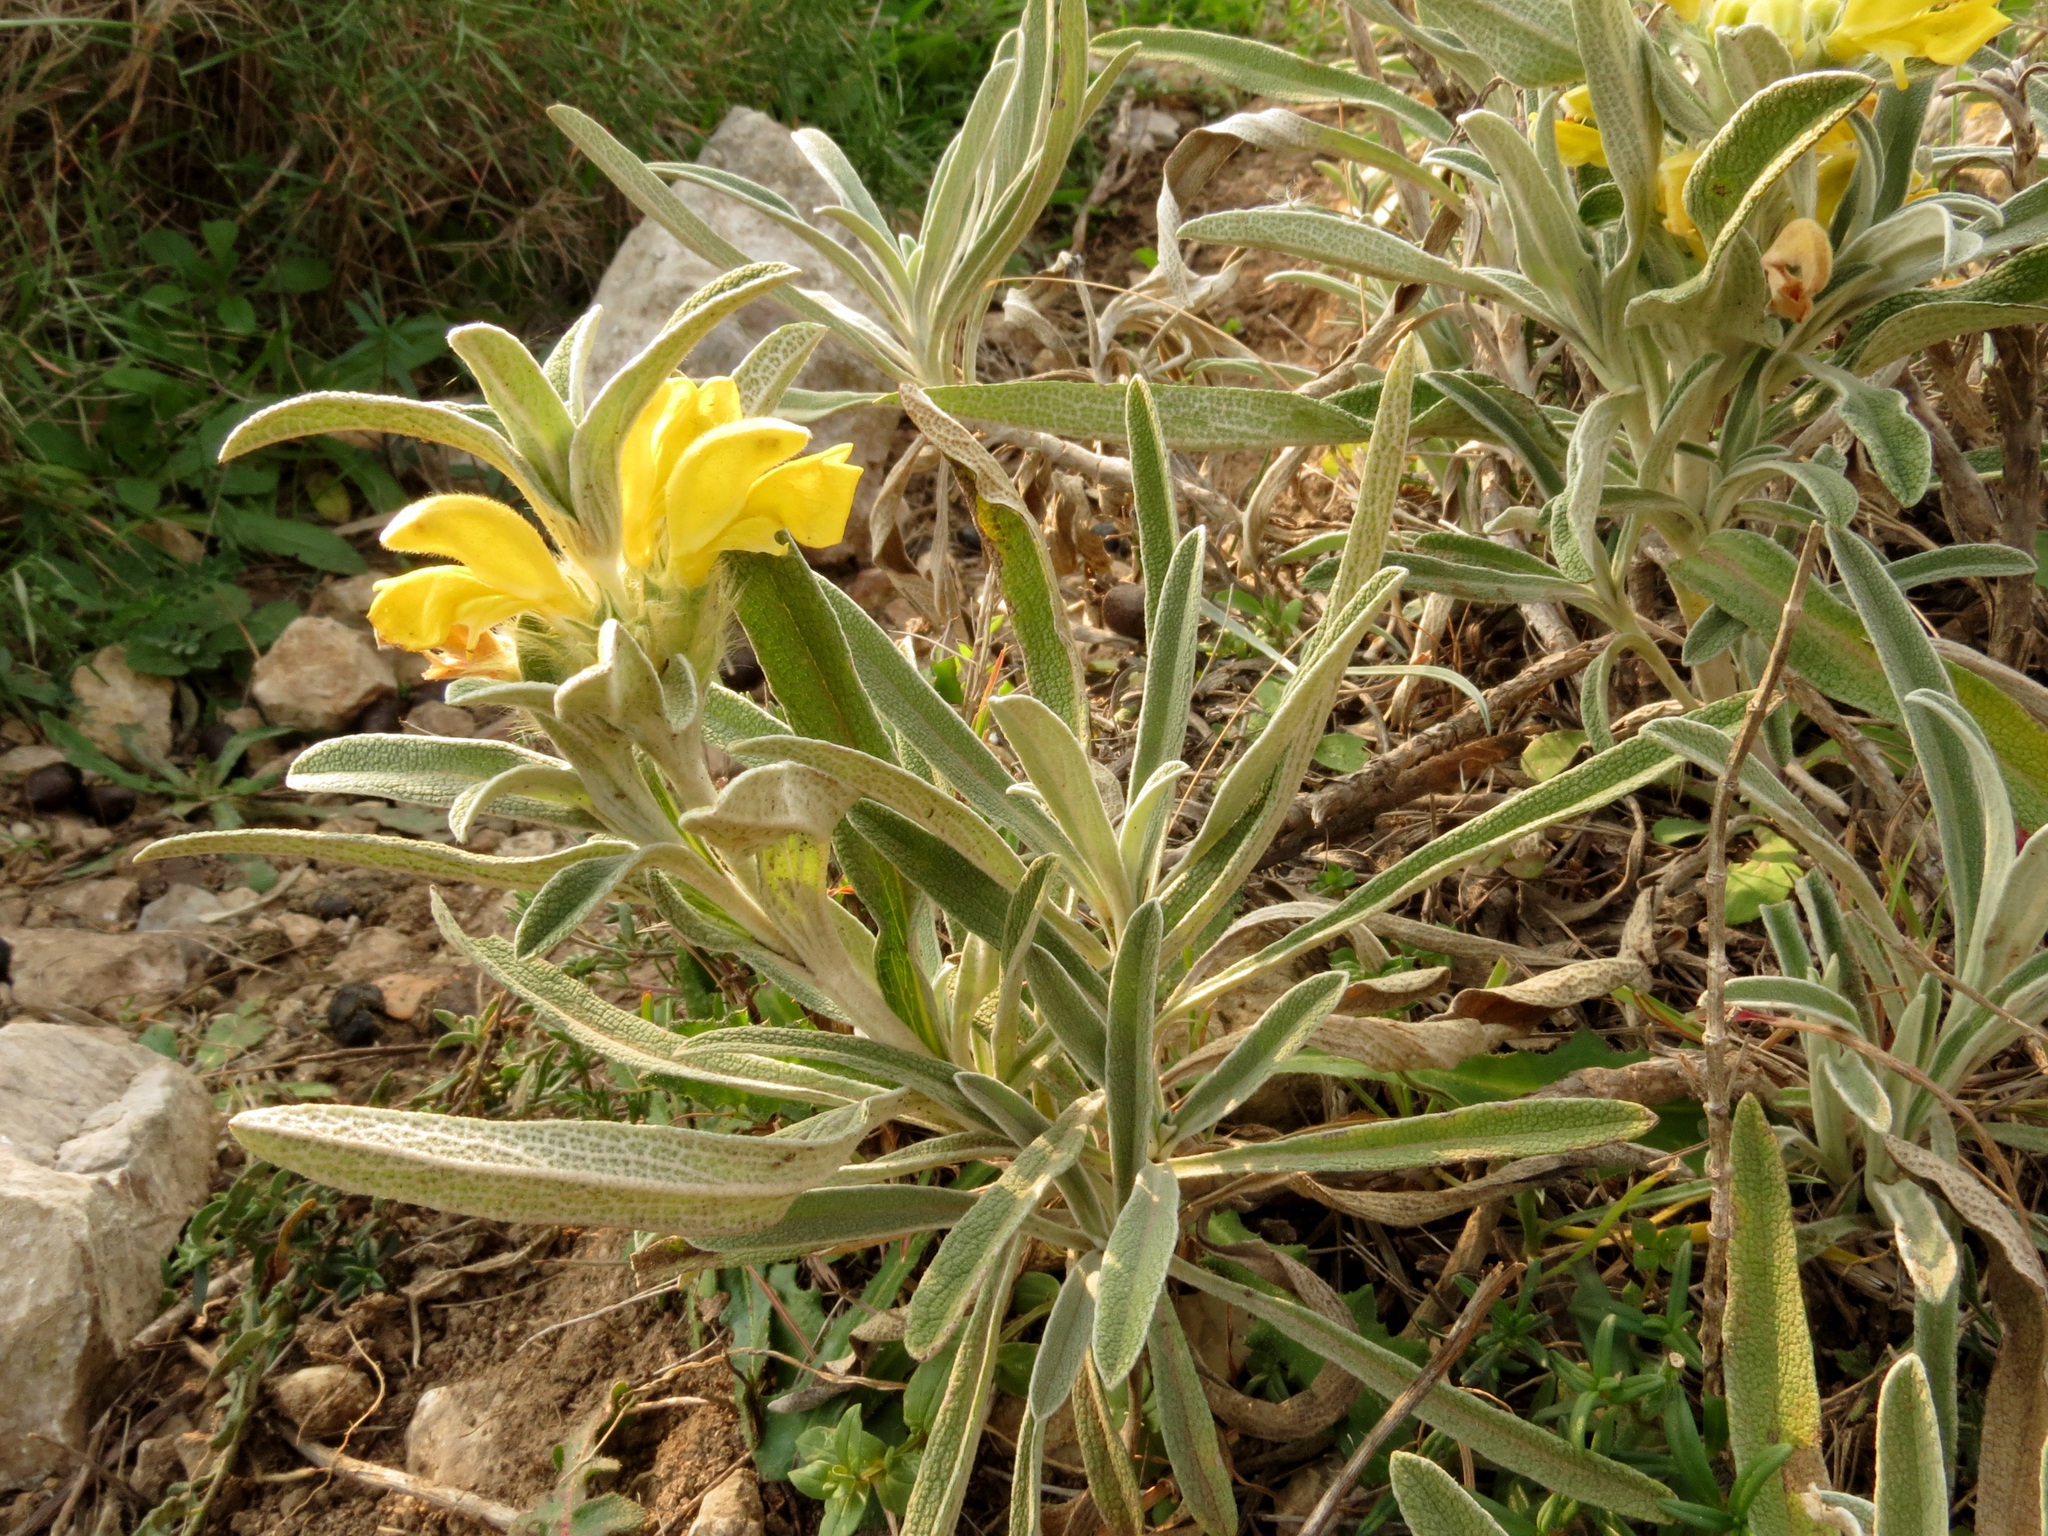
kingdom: Plantae
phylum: Tracheophyta
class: Magnoliopsida
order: Lamiales
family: Lamiaceae
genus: Phlomis
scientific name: Phlomis lychnitis
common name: Lampwickplant
